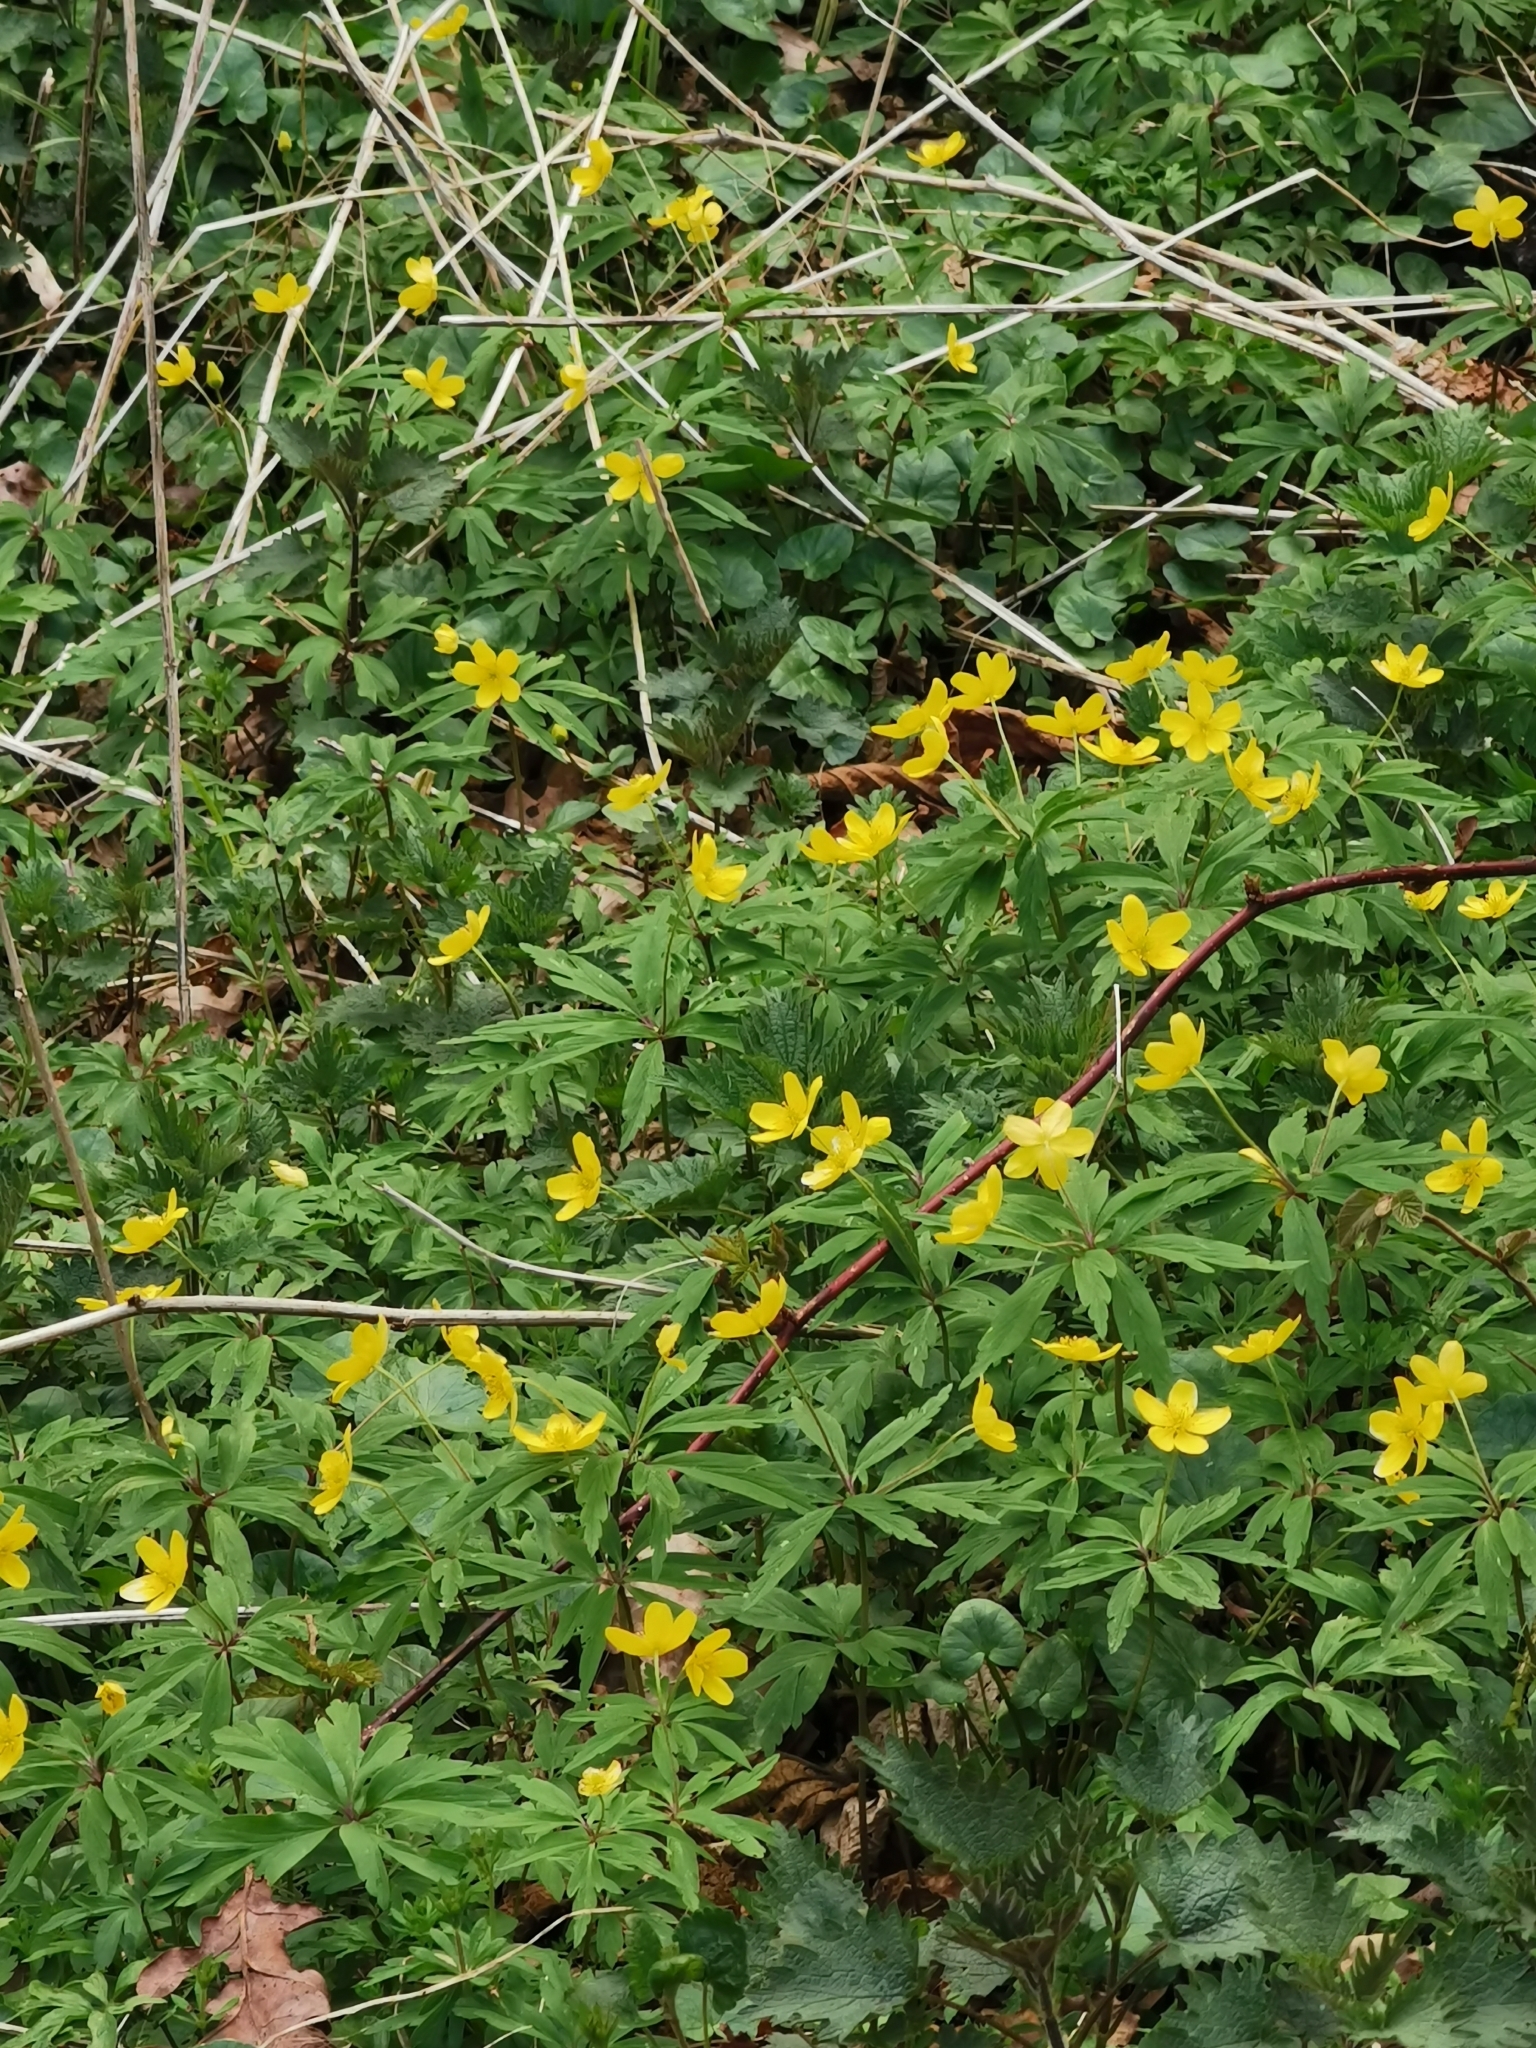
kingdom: Plantae
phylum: Tracheophyta
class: Magnoliopsida
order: Ranunculales
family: Ranunculaceae
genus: Anemone
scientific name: Anemone ranunculoides
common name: Yellow anemone
